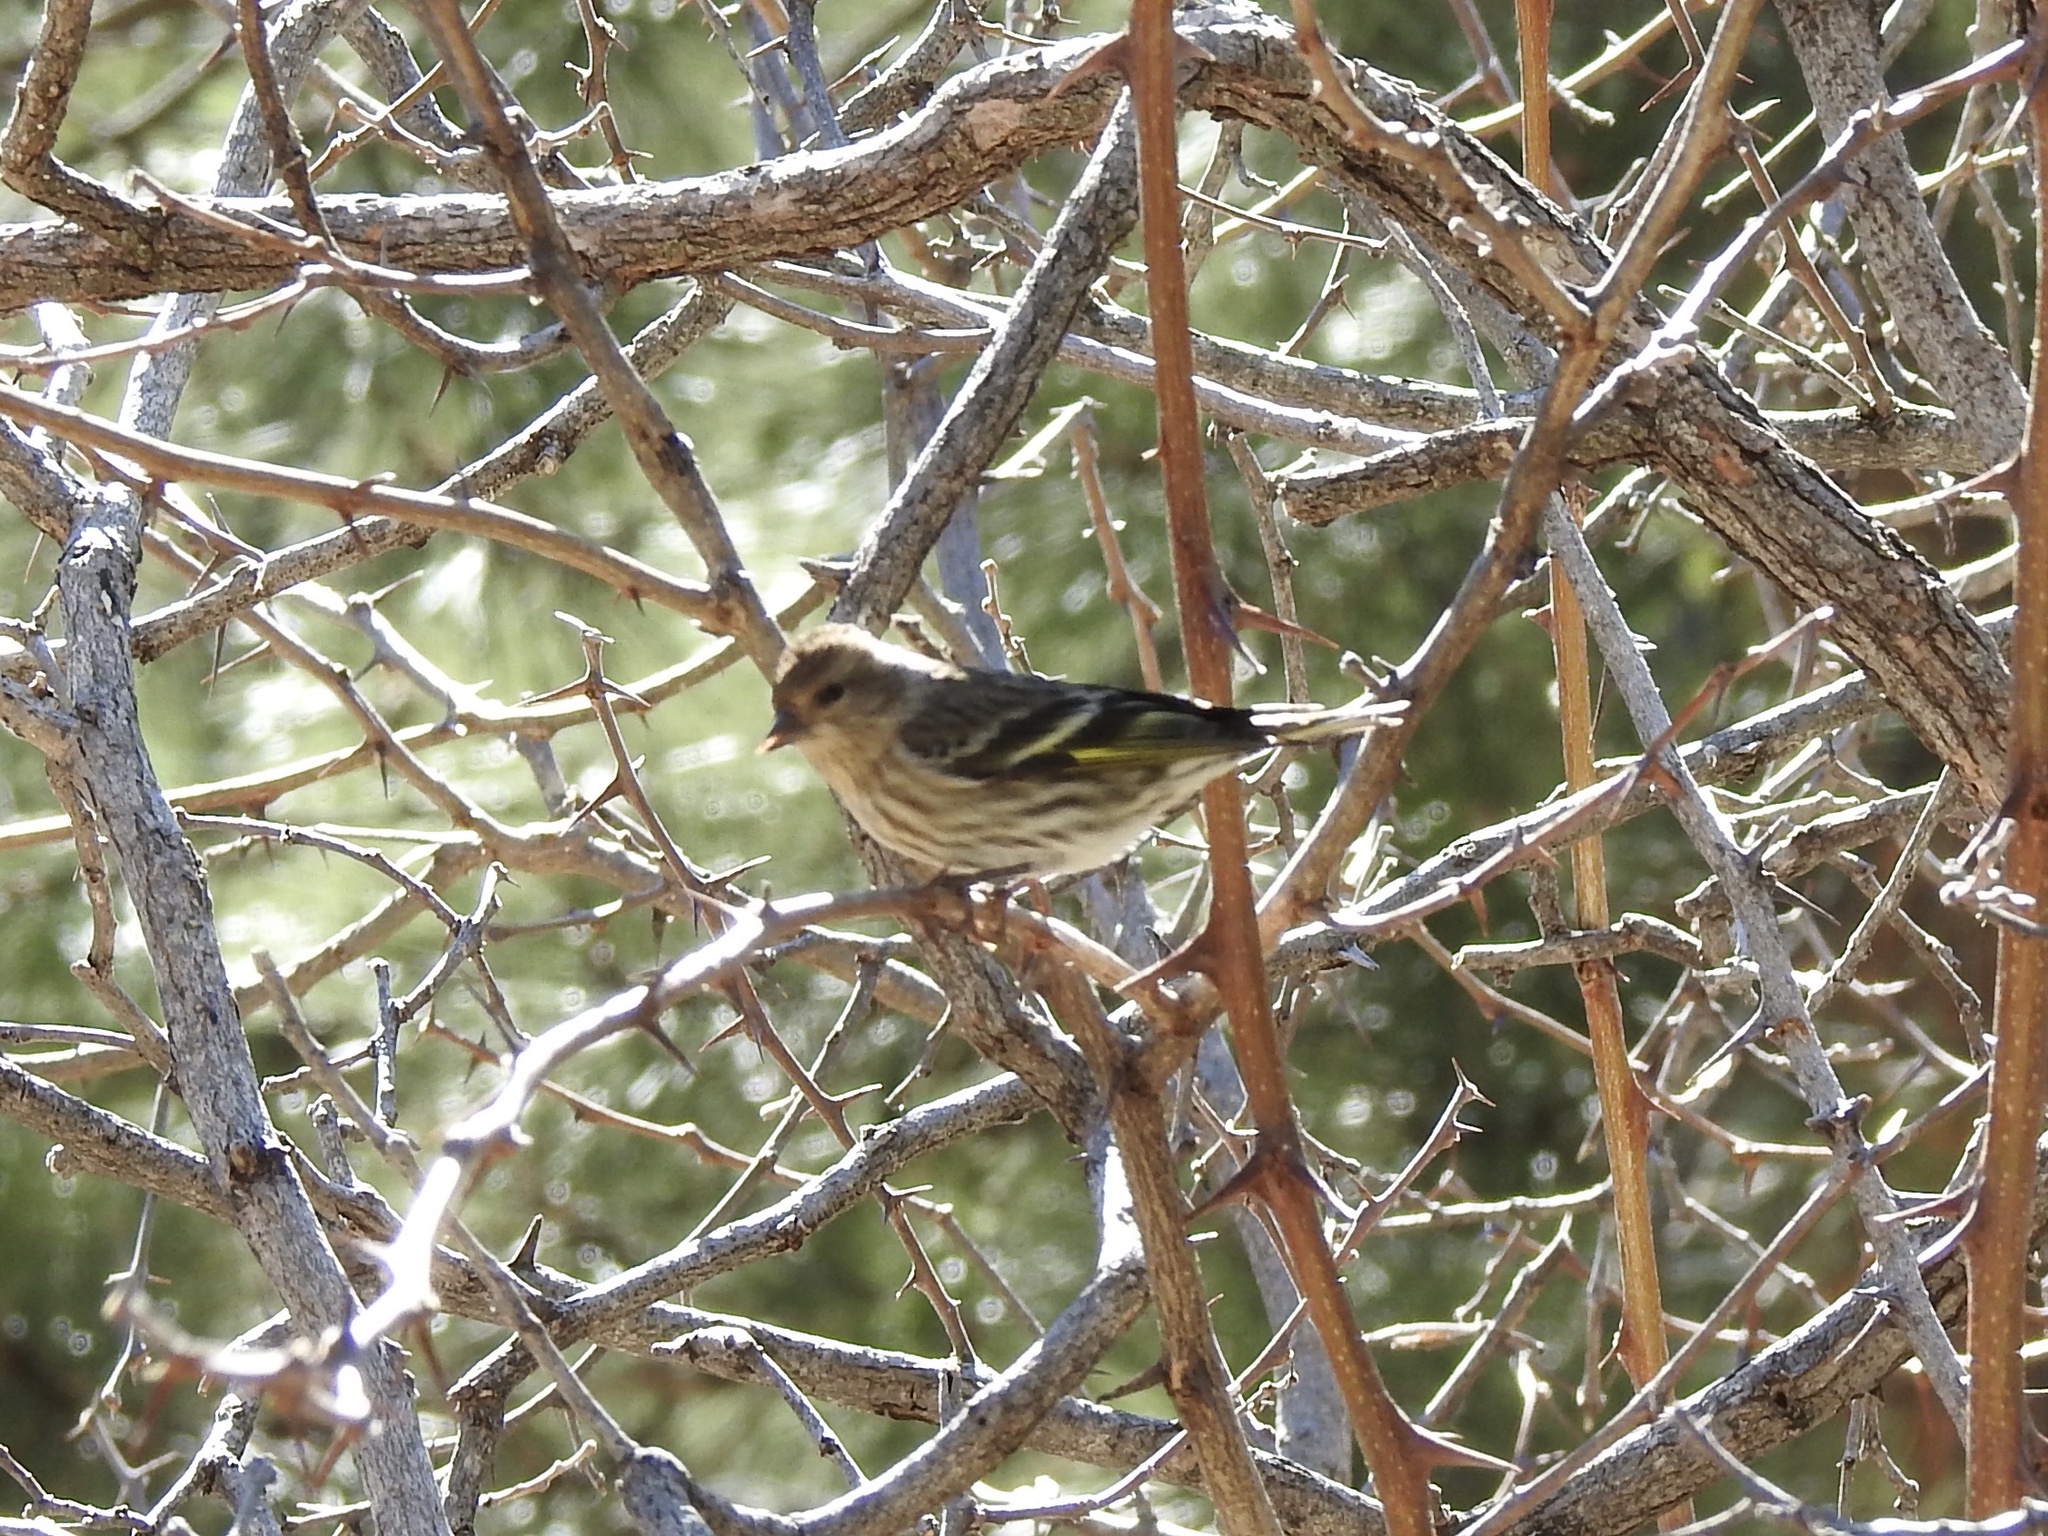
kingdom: Animalia
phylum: Chordata
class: Aves
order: Passeriformes
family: Fringillidae
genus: Spinus
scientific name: Spinus pinus
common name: Pine siskin
